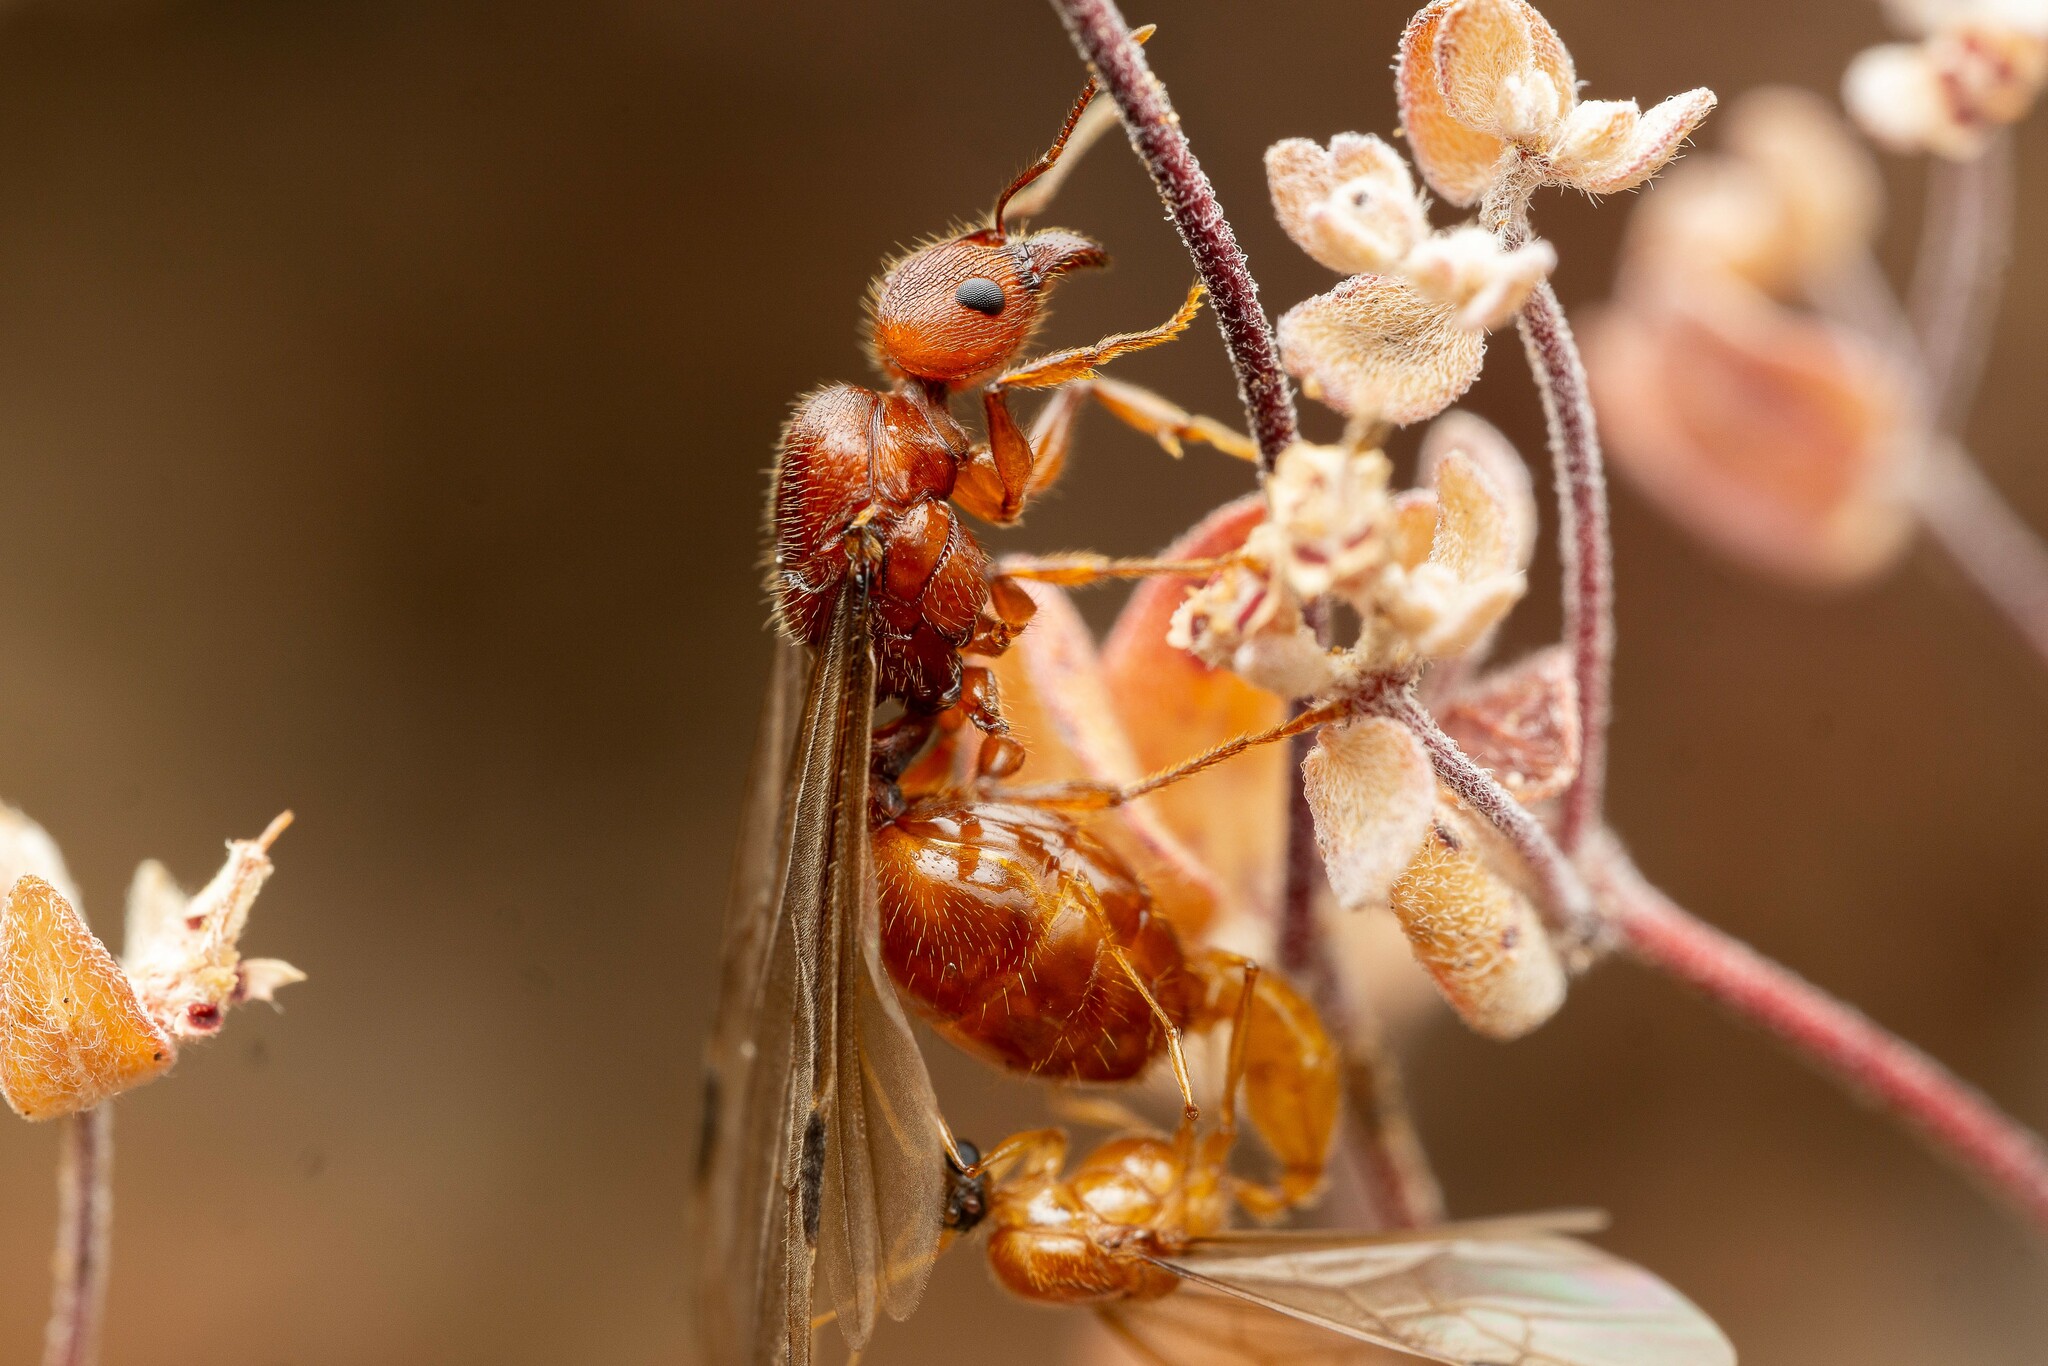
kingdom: Animalia
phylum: Arthropoda
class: Insecta
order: Hymenoptera
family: Formicidae
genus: Pheidole
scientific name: Pheidole titanis
